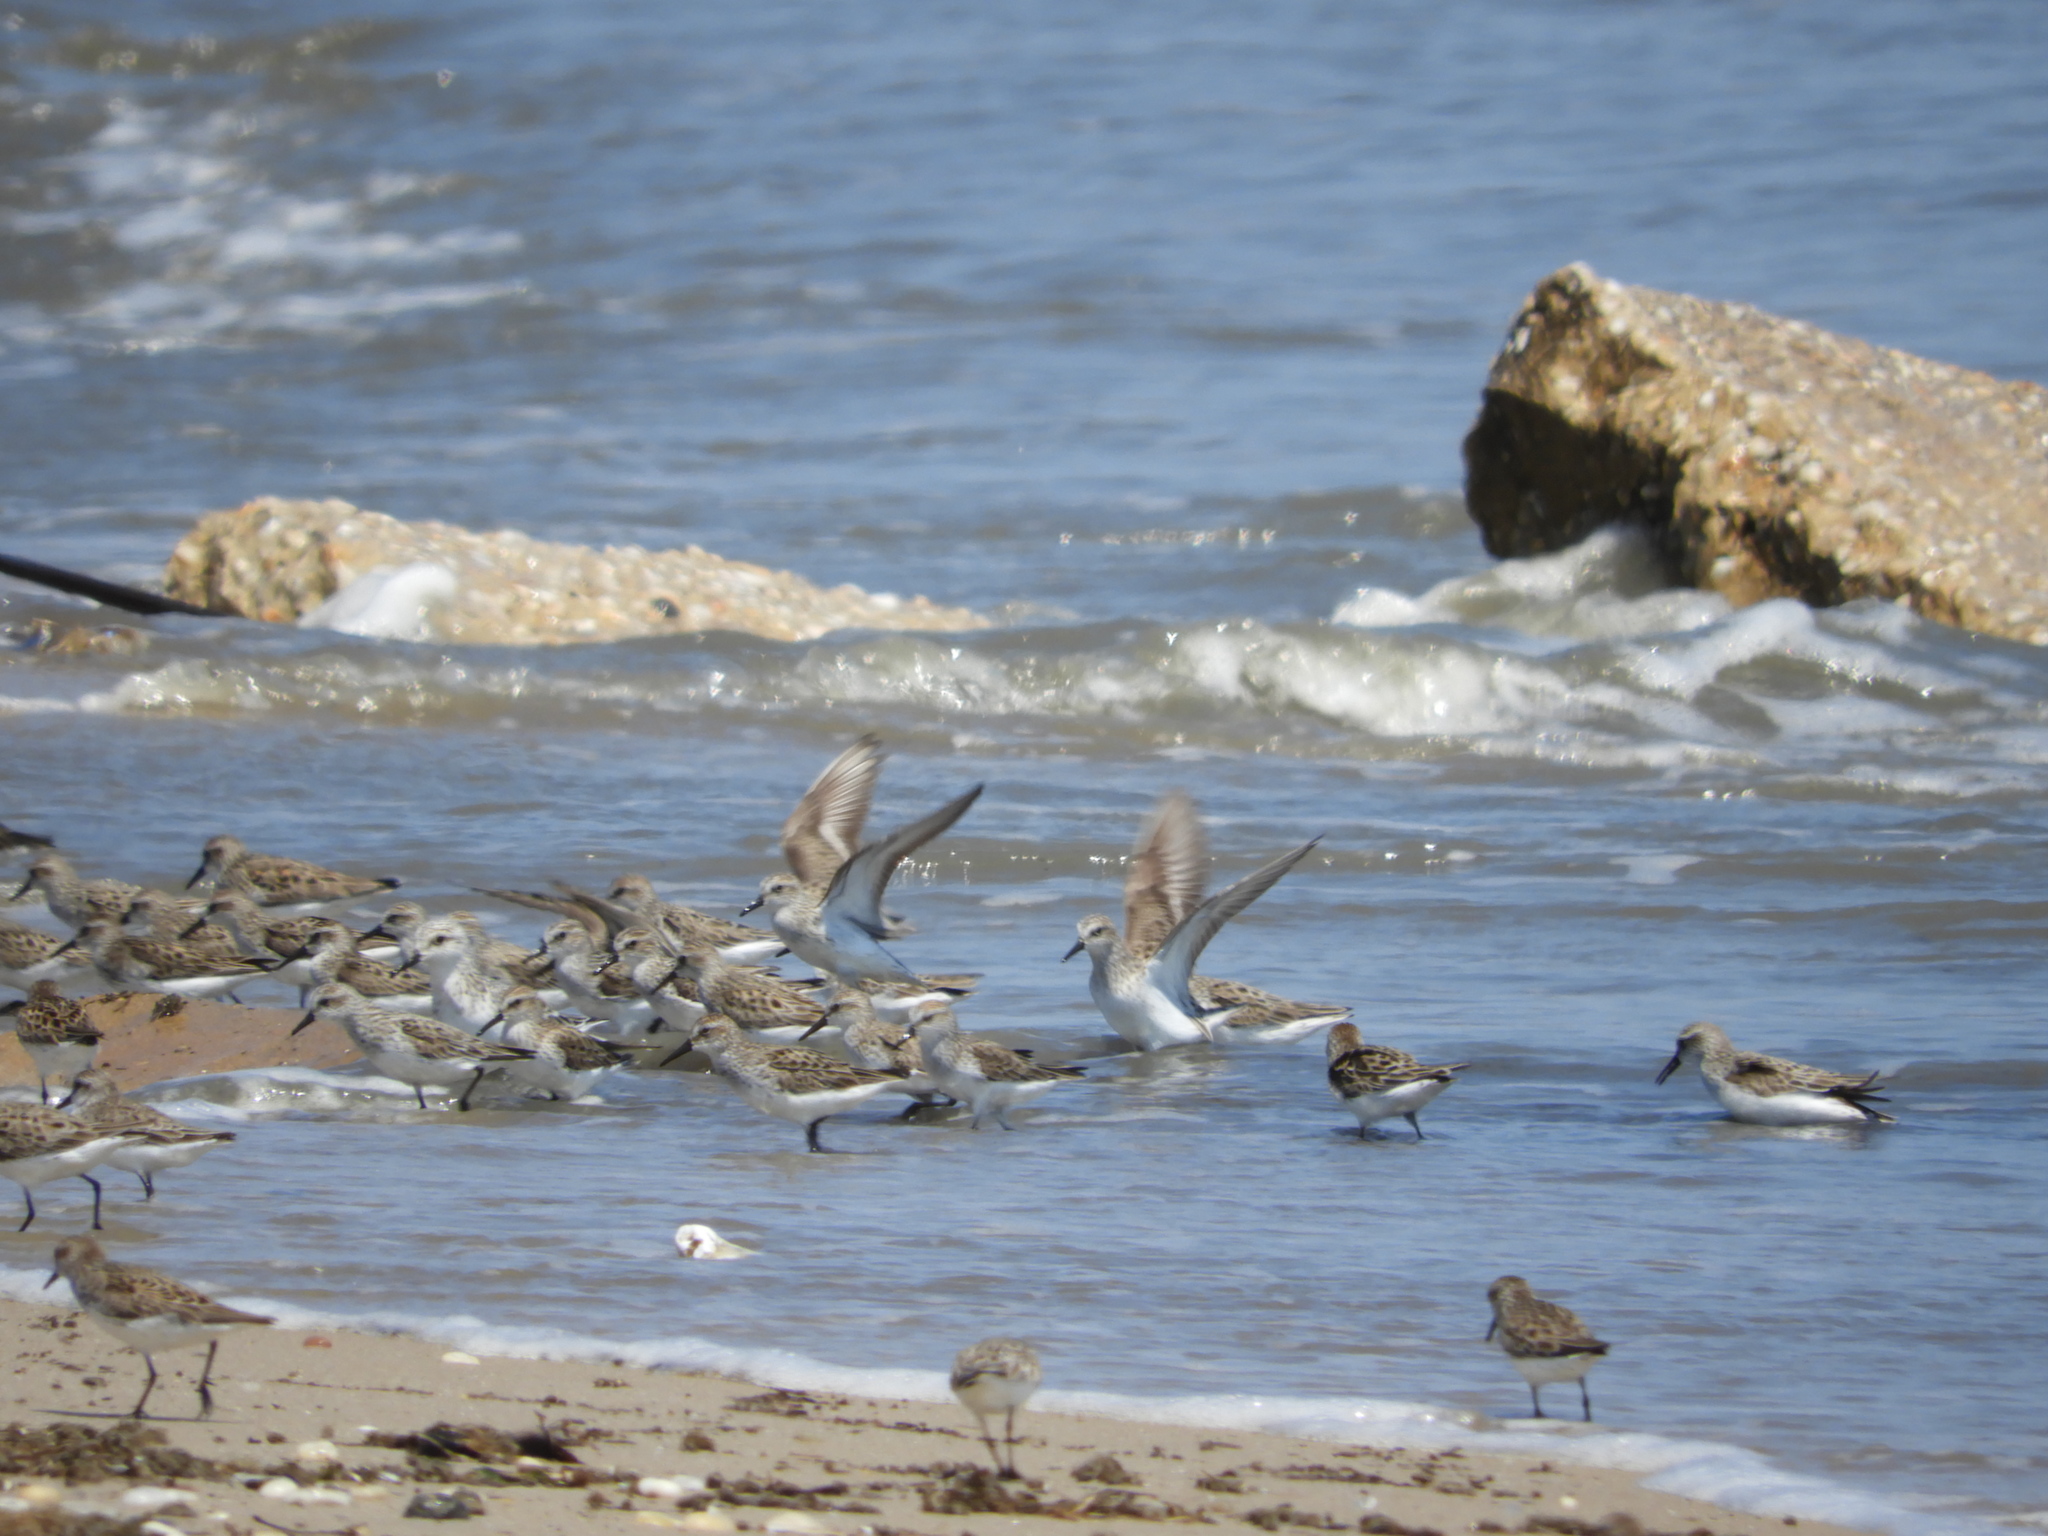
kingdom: Animalia
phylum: Chordata
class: Aves
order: Charadriiformes
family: Scolopacidae
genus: Calidris
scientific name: Calidris pusilla
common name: Semipalmated sandpiper
